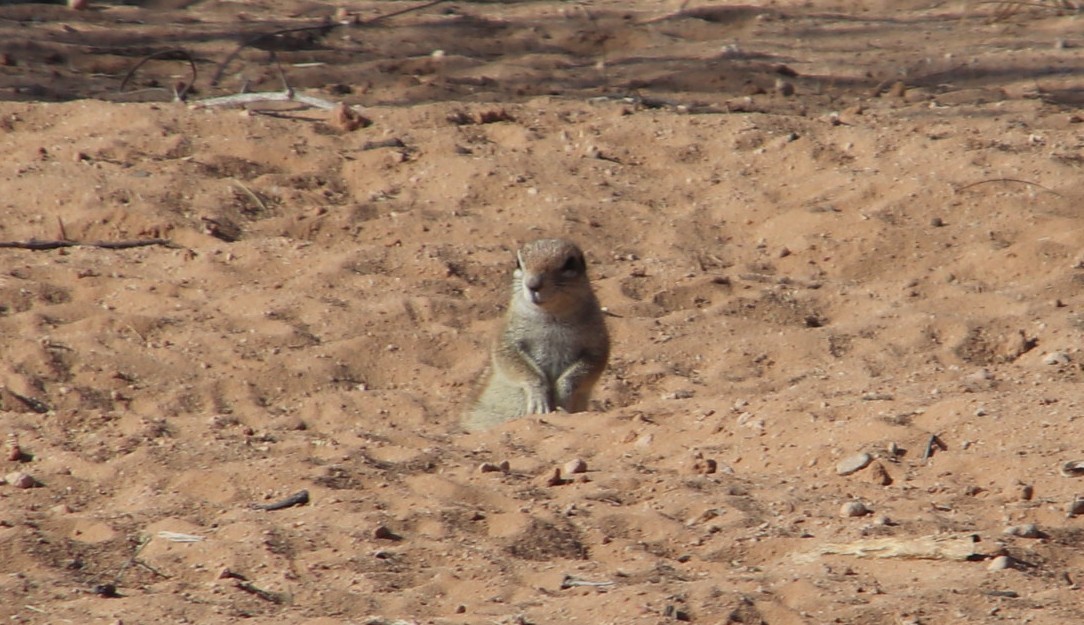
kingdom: Animalia
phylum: Chordata
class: Mammalia
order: Rodentia
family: Sciuridae
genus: Xerus
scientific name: Xerus inauris
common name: South african ground squirrel
